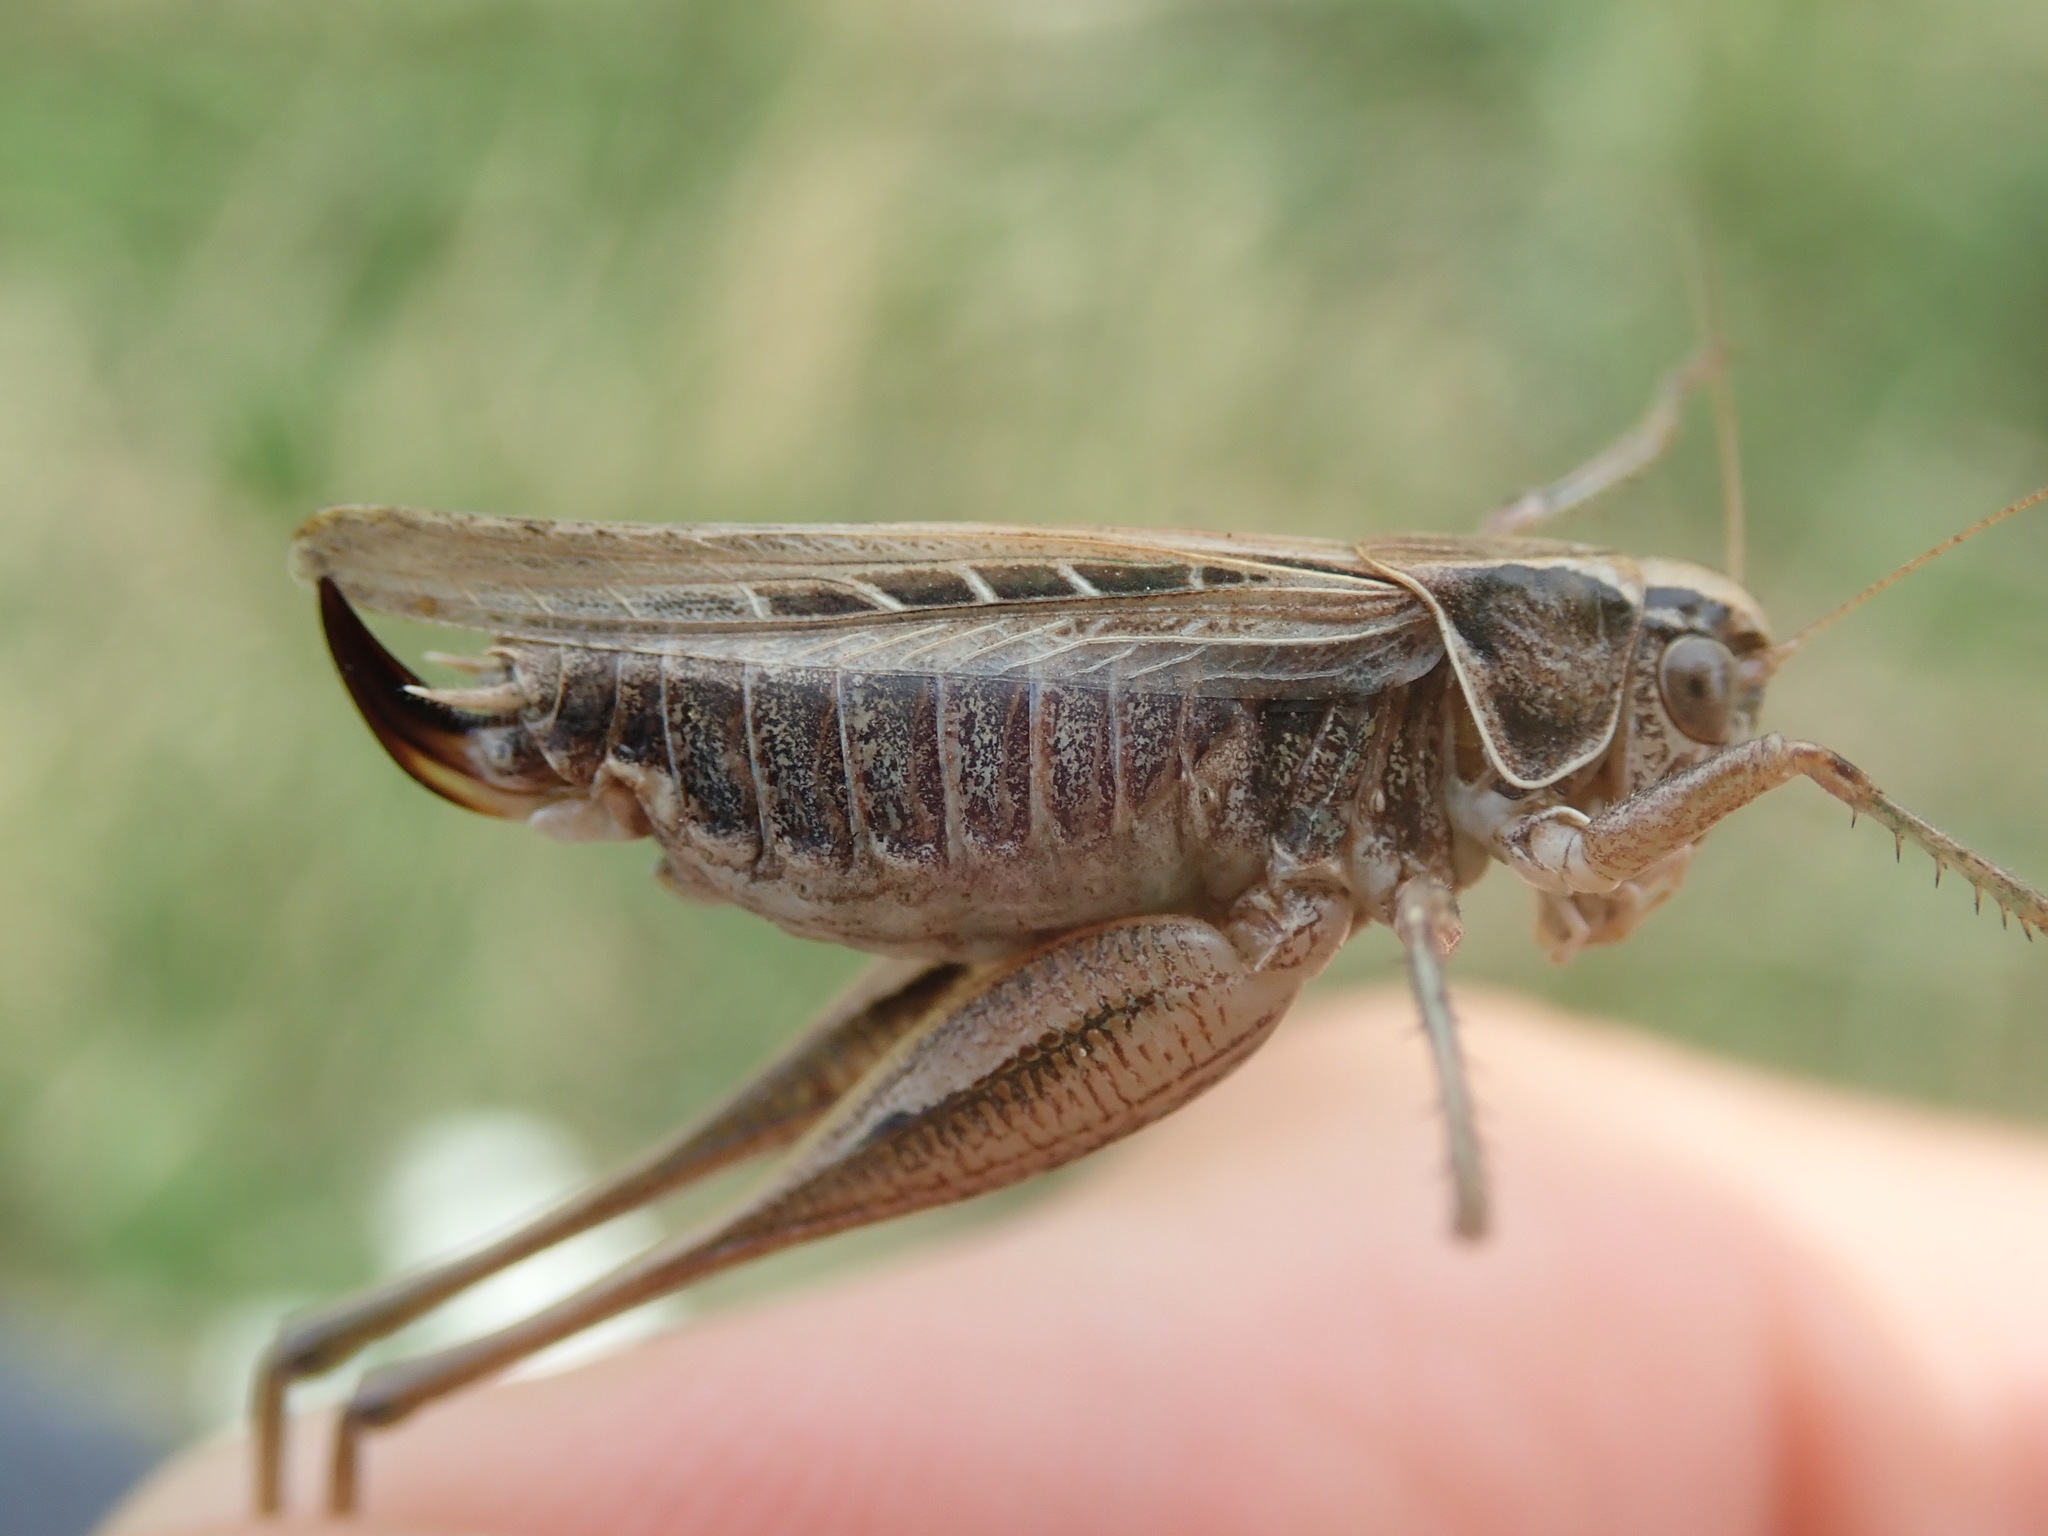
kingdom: Animalia
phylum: Arthropoda
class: Insecta
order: Orthoptera
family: Tettigoniidae
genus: Tessellana
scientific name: Tessellana tessellata
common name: Grasshopper
